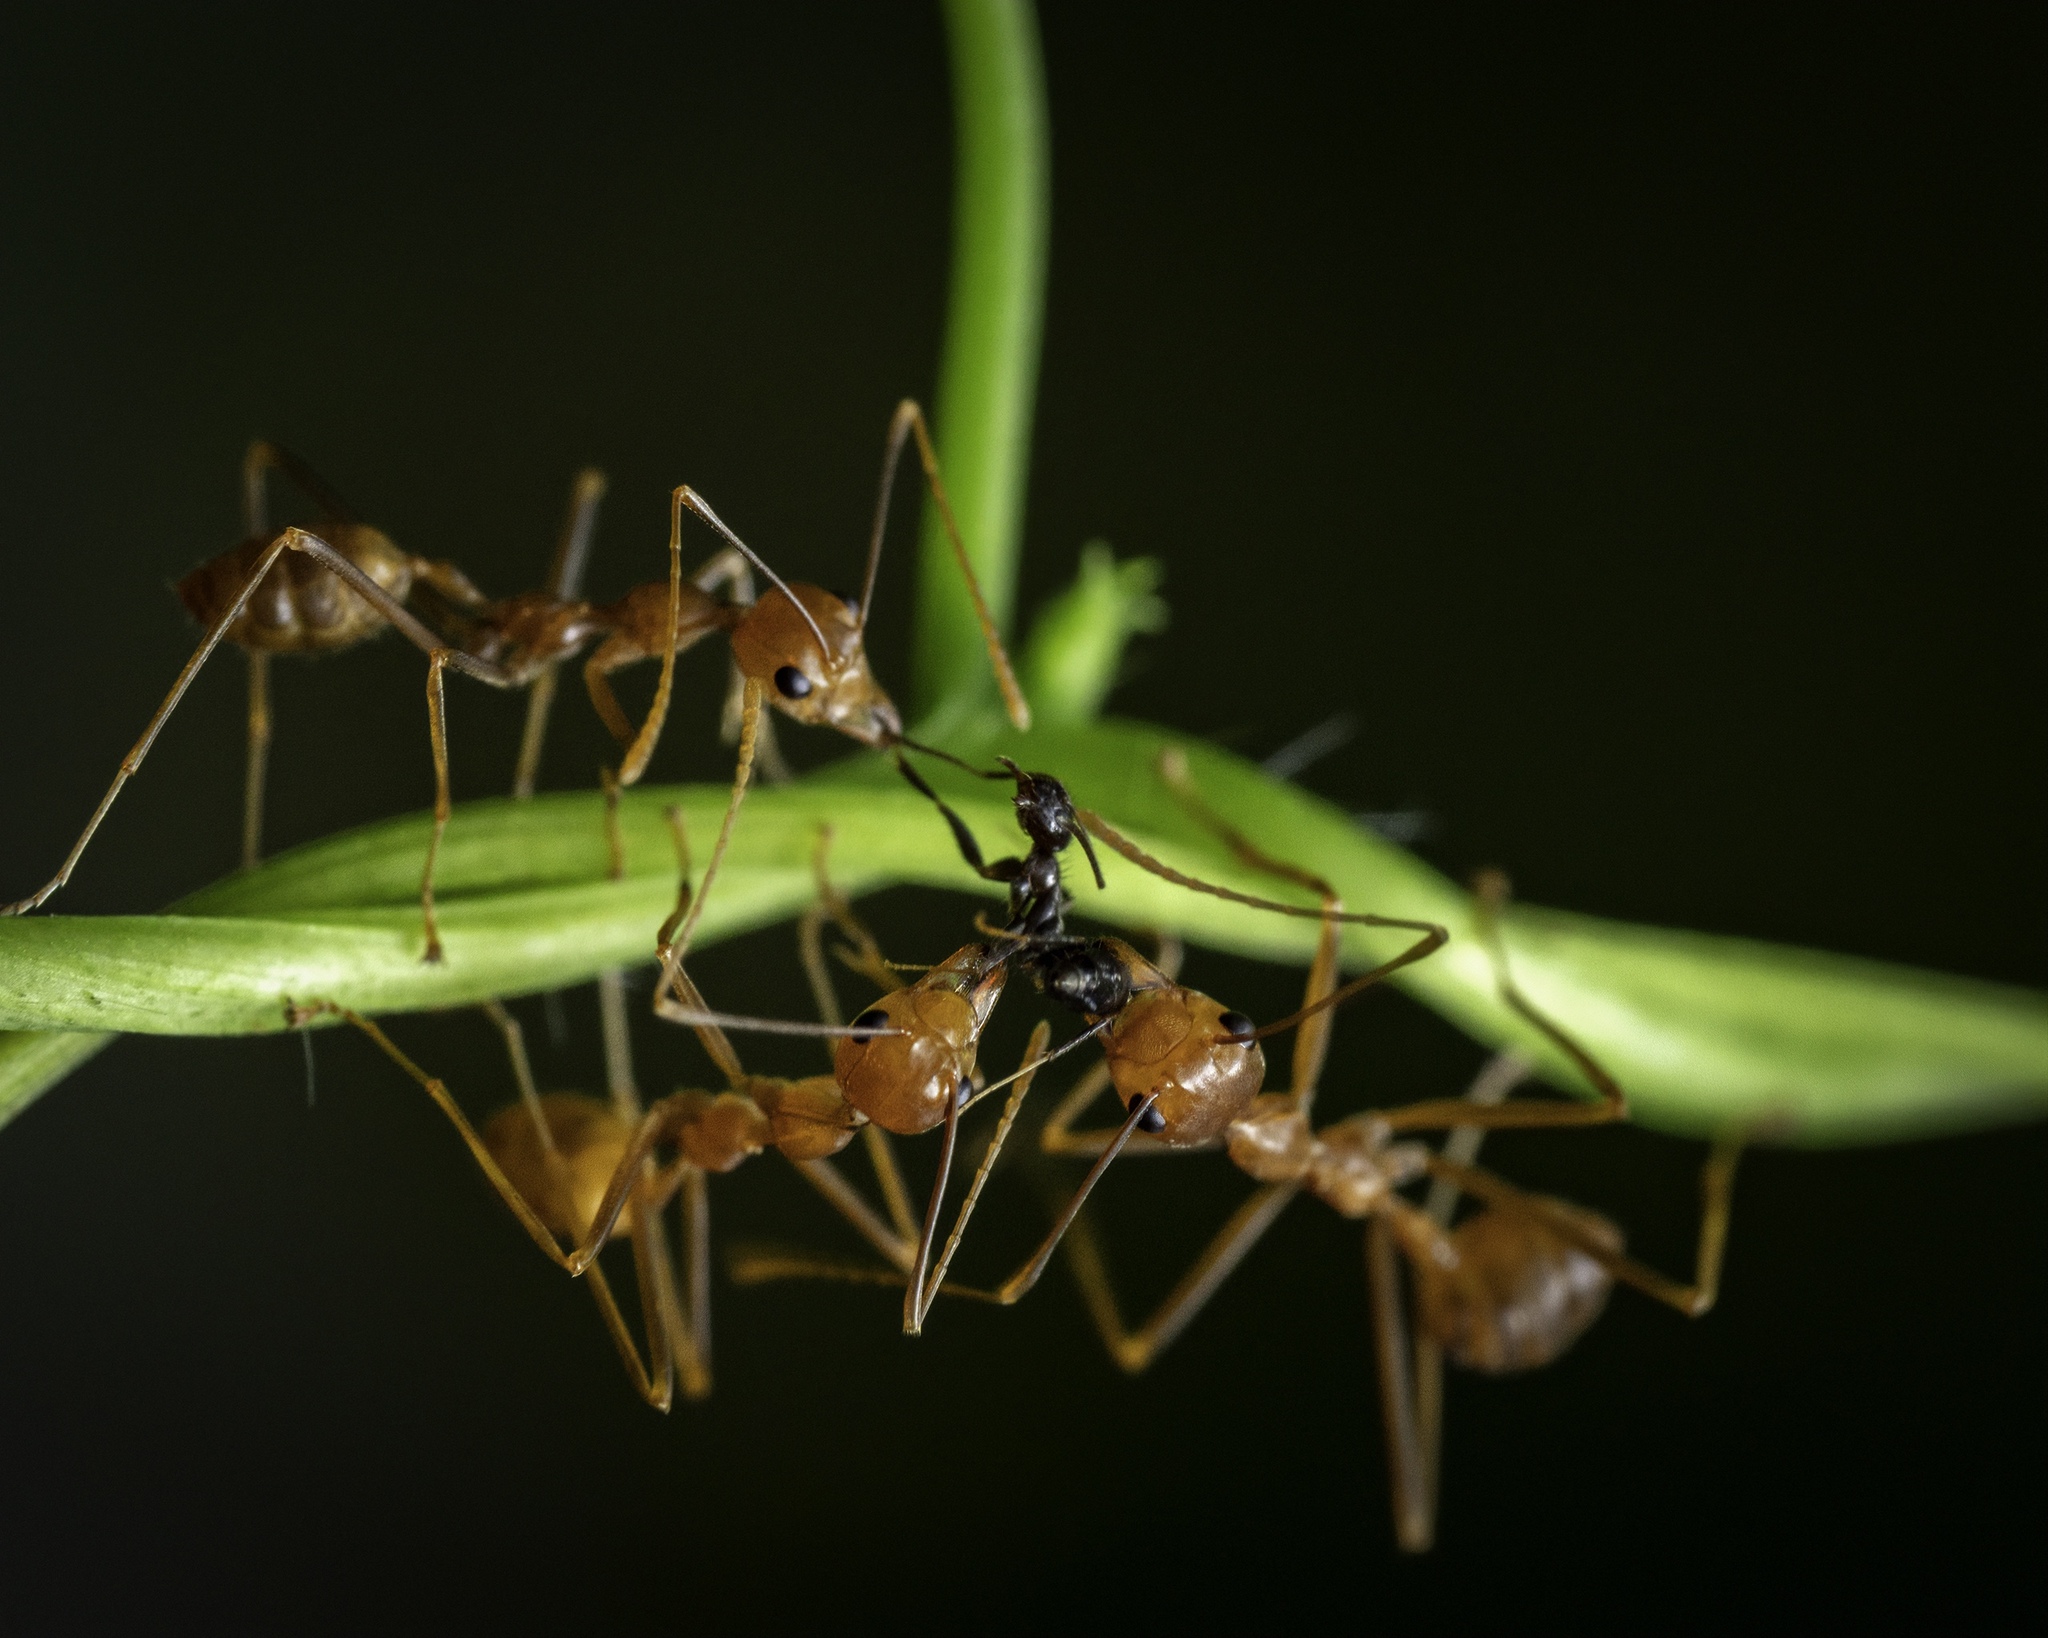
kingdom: Animalia
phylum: Arthropoda
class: Insecta
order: Hymenoptera
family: Formicidae
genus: Oecophylla
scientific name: Oecophylla smaragdina
